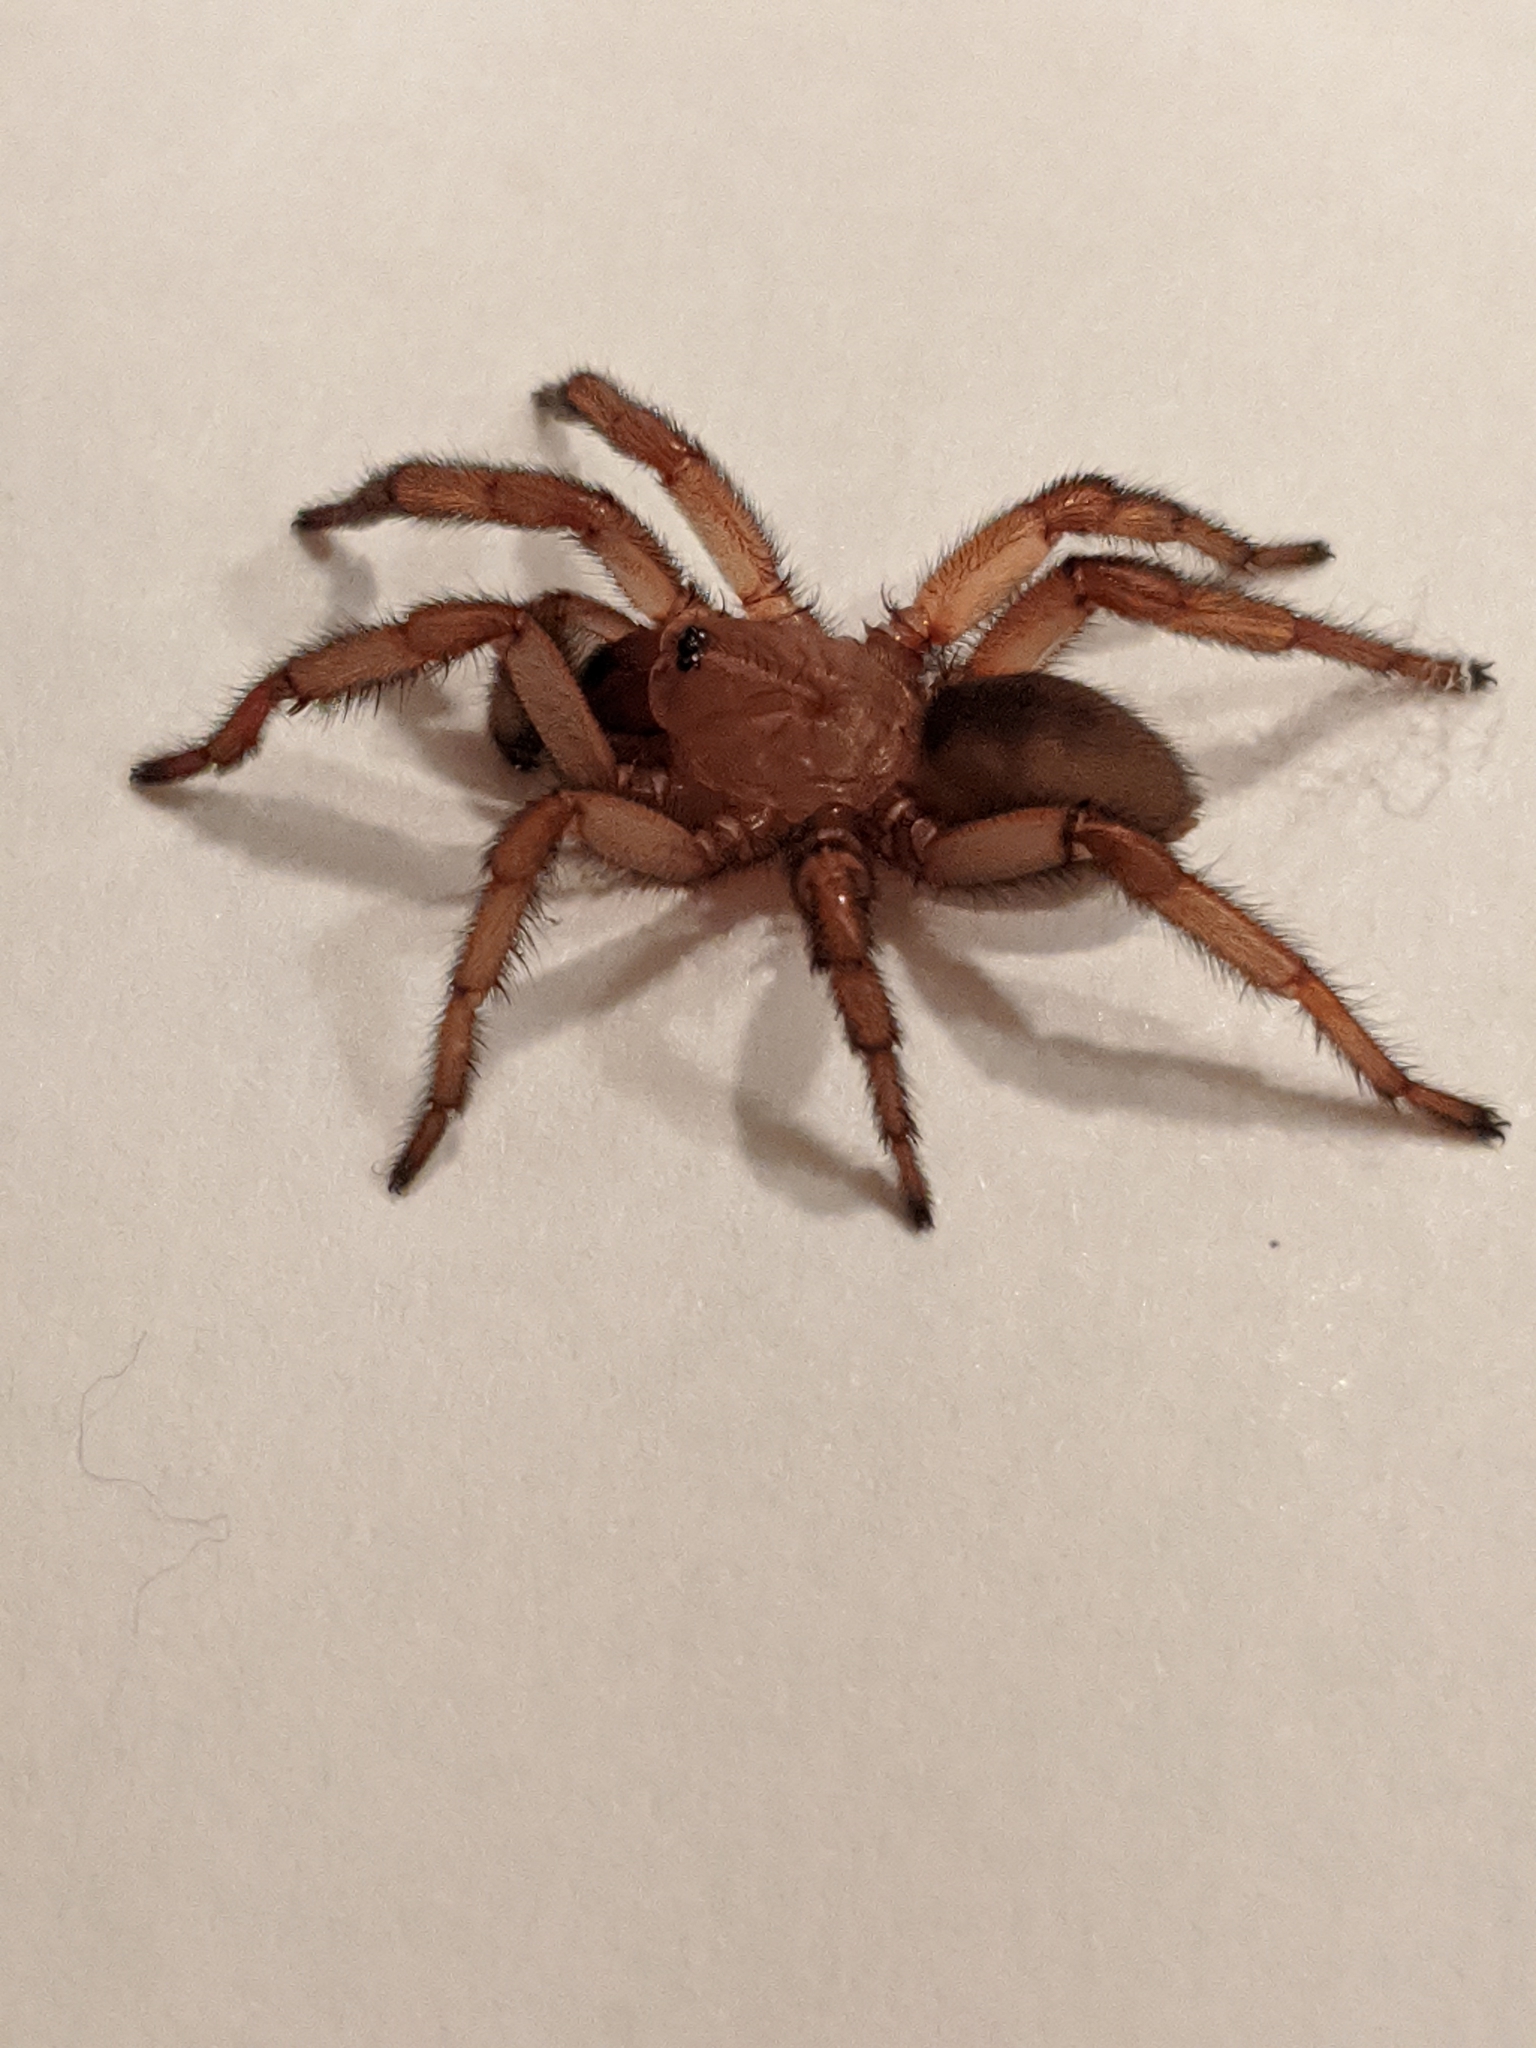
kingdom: Animalia
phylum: Arthropoda
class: Arachnida
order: Araneae
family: Euctenizidae
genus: Myrmekiaphila
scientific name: Myrmekiaphila comstocki
